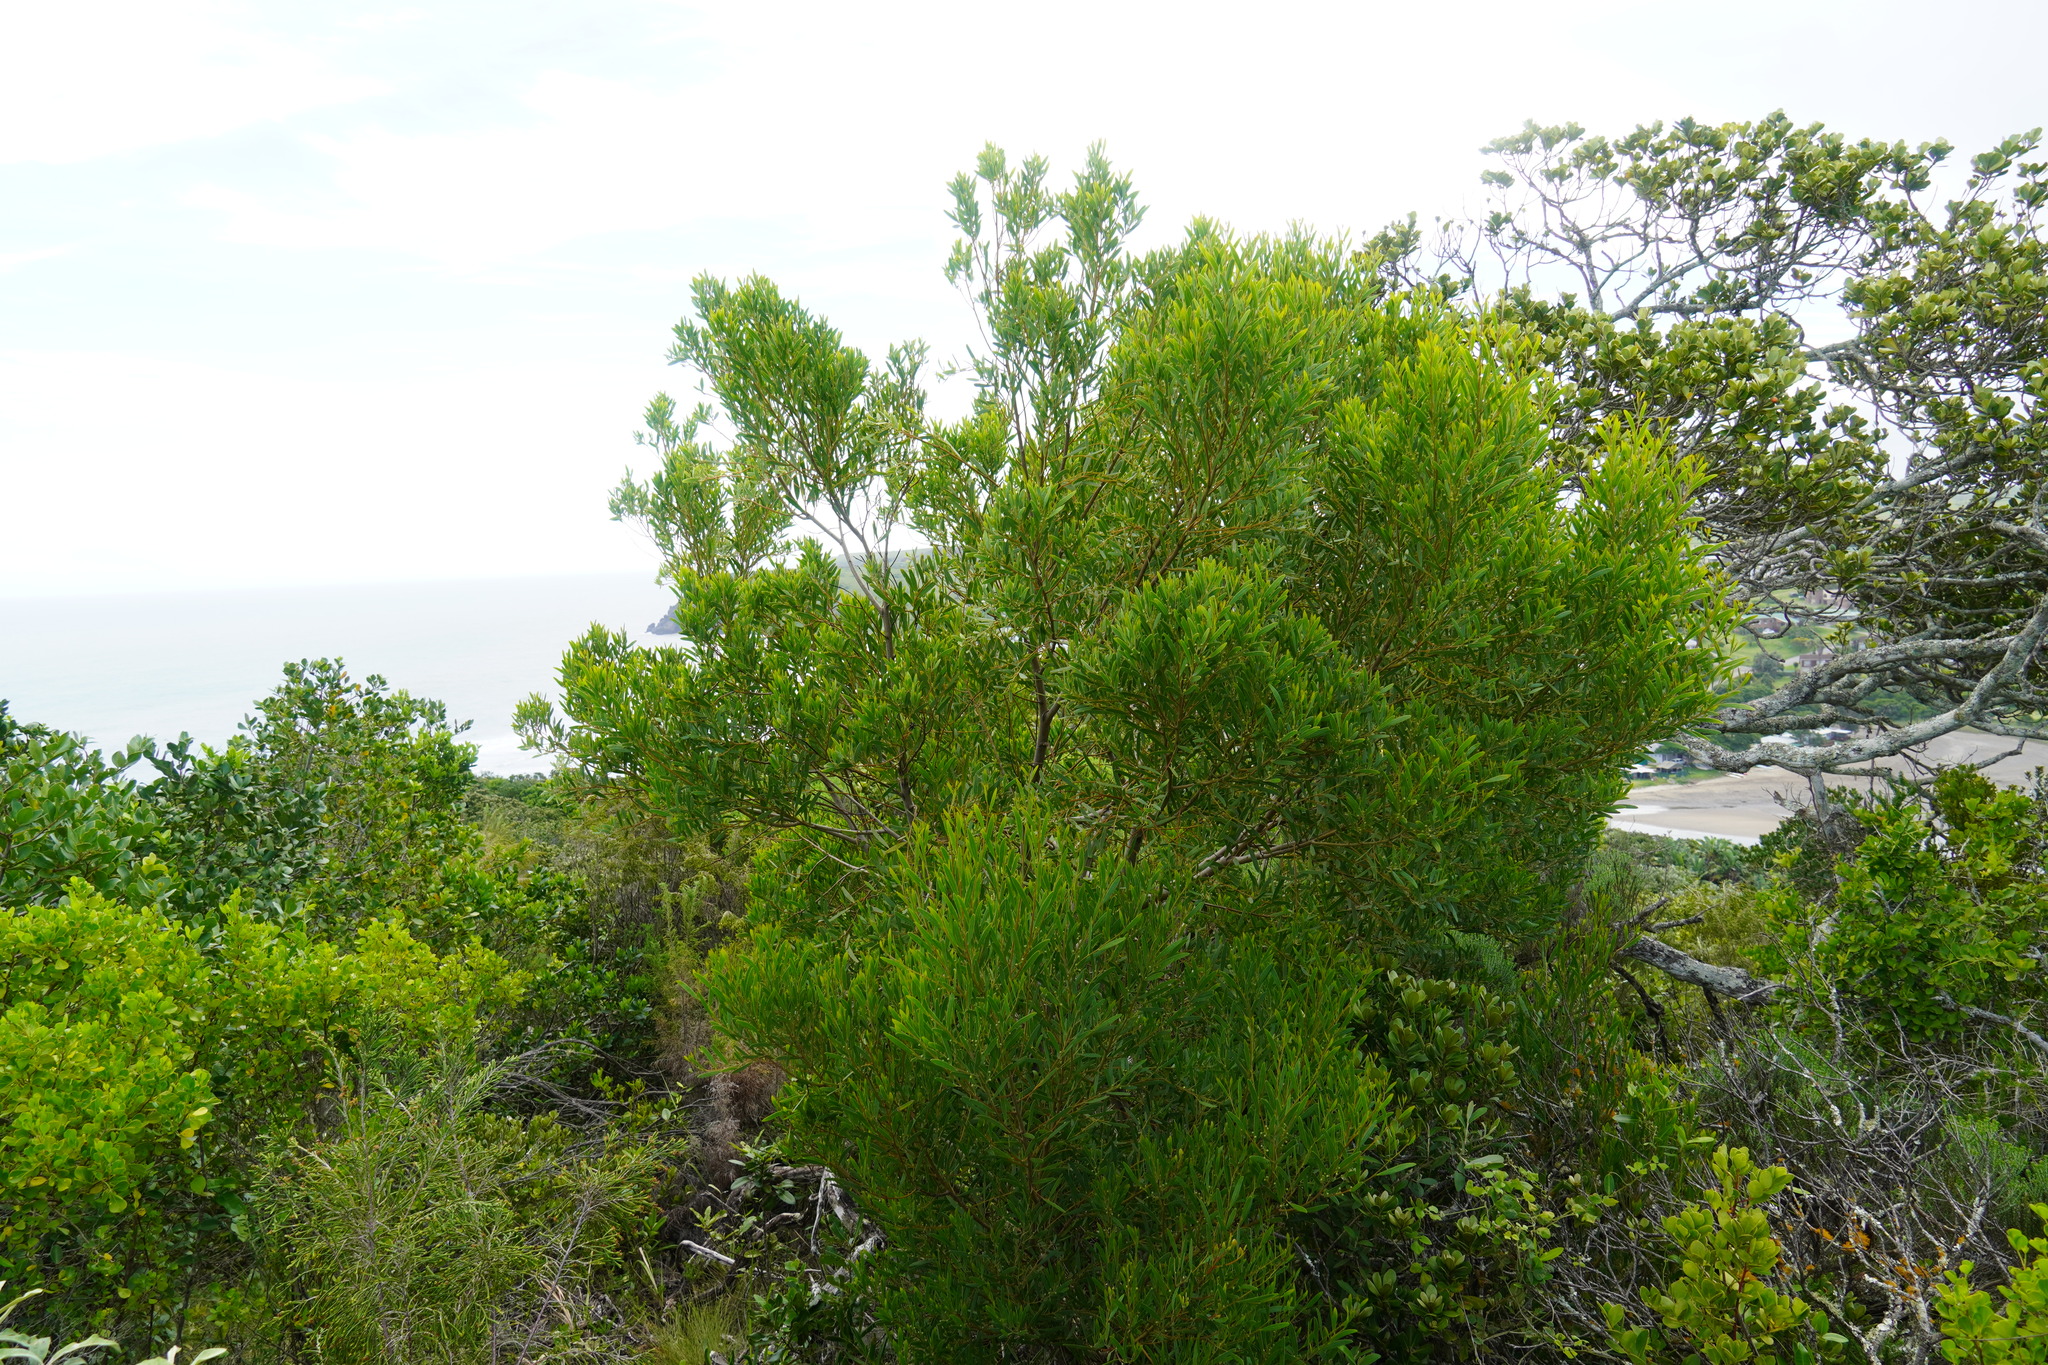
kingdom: Plantae
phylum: Tracheophyta
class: Magnoliopsida
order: Fabales
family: Fabaceae
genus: Acacia
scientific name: Acacia cyclops
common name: Coastal wattle
